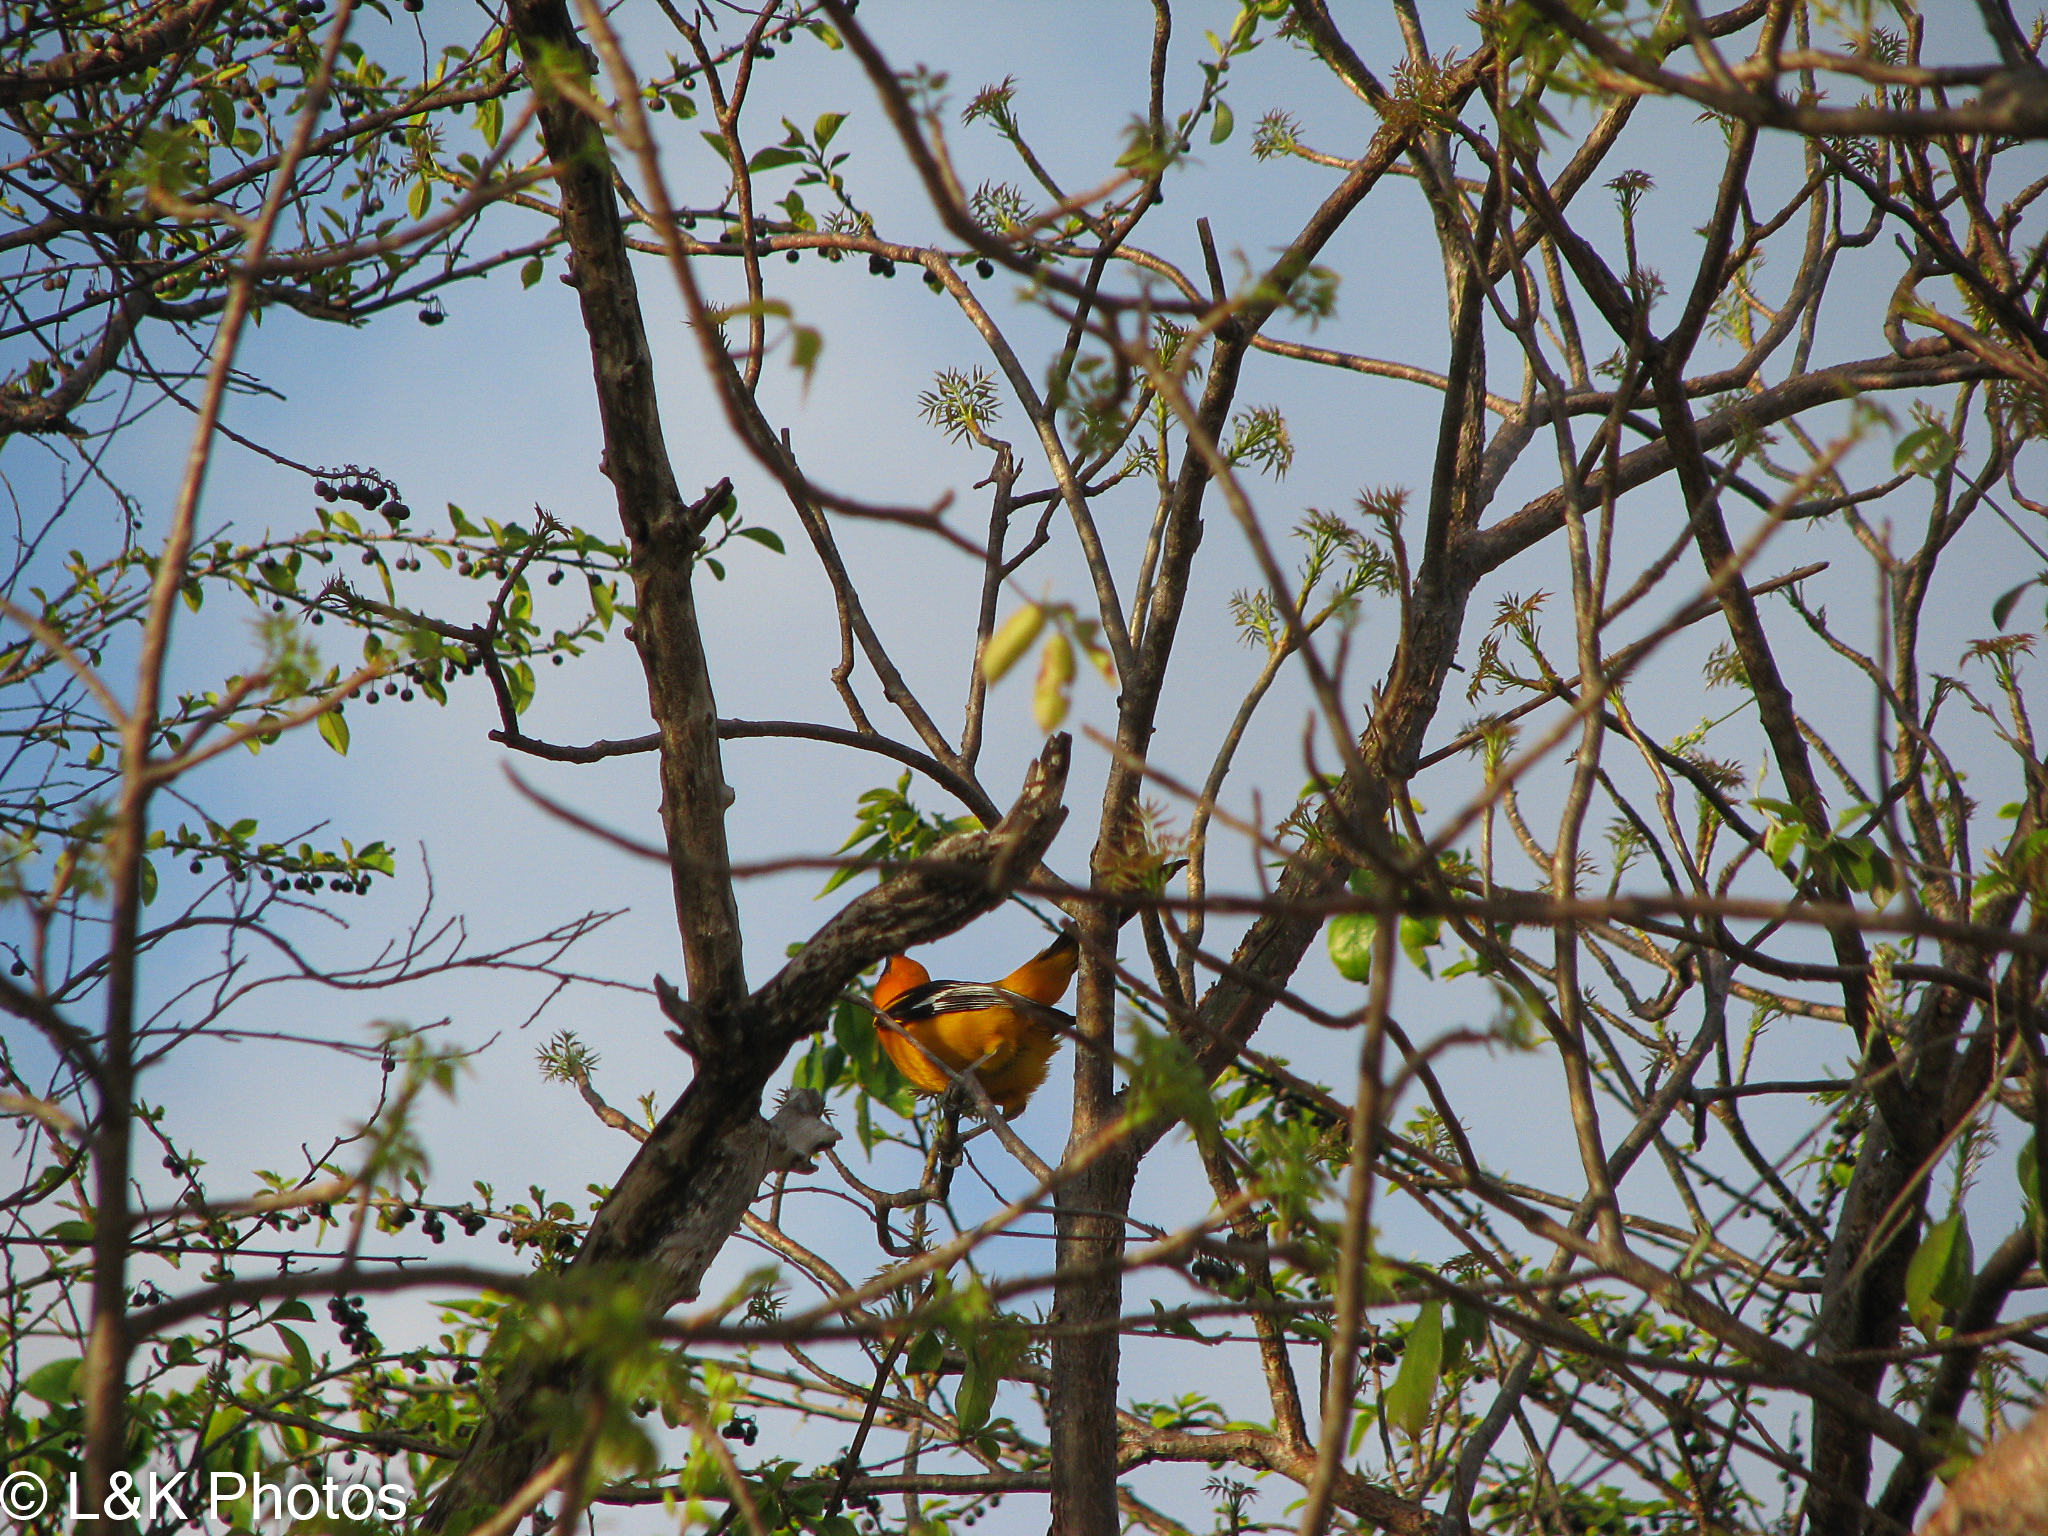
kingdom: Animalia
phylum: Chordata
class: Aves
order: Passeriformes
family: Icteridae
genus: Icterus
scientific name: Icterus gularis
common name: Altamira oriole
